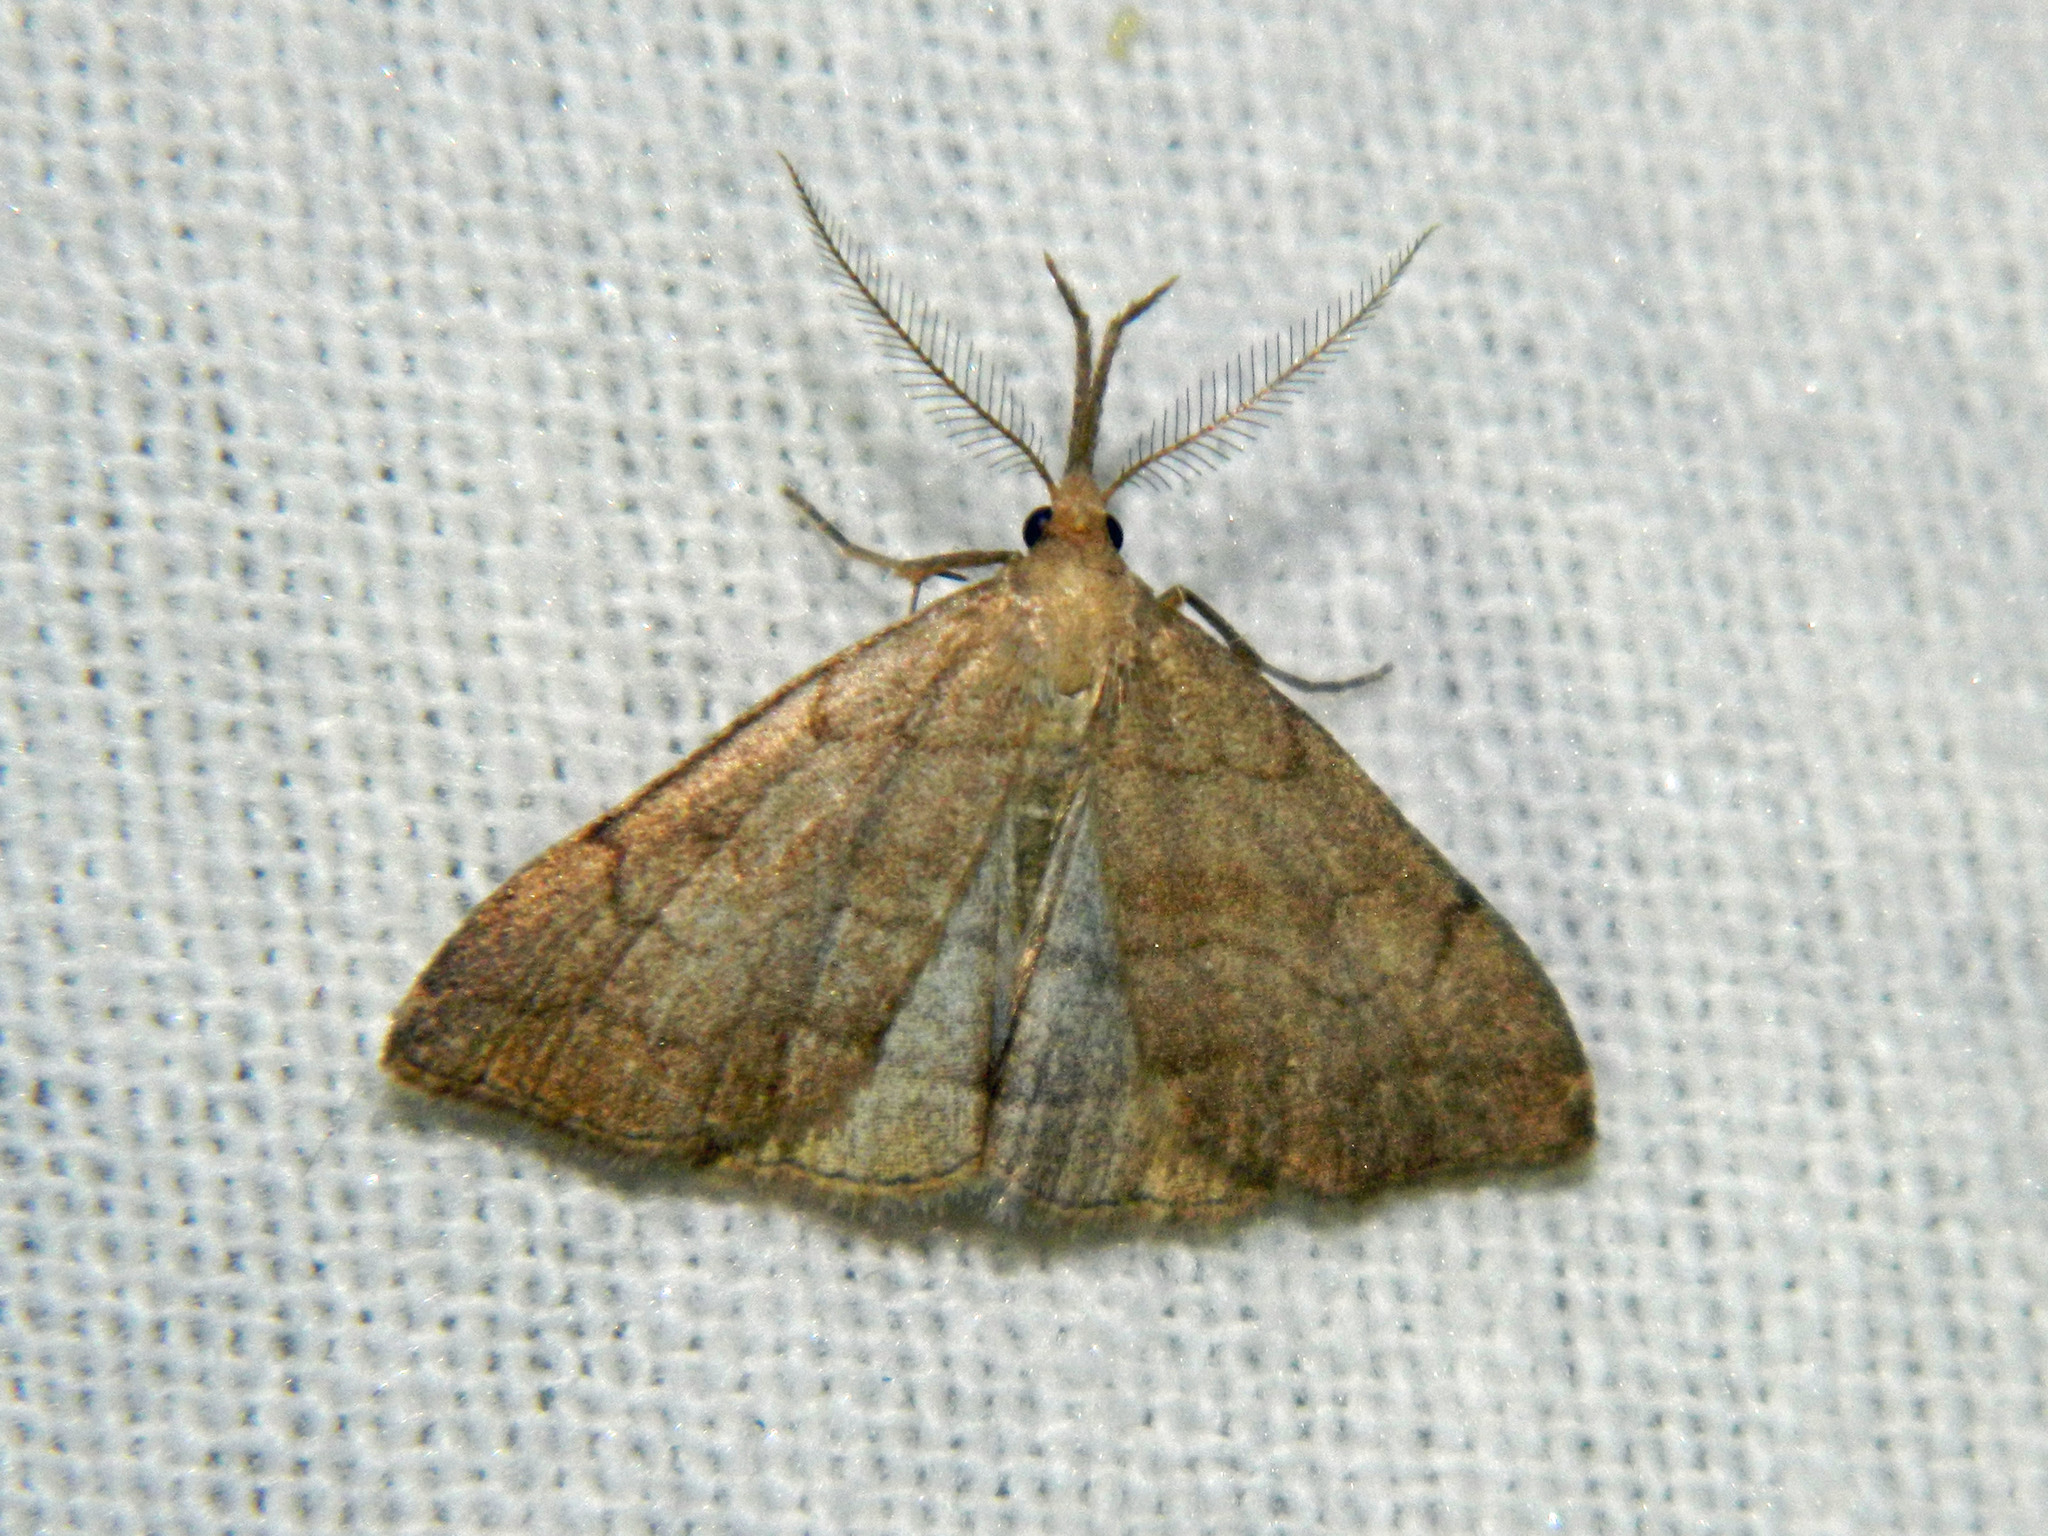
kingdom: Animalia
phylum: Arthropoda
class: Insecta
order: Lepidoptera
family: Erebidae
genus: Phalaenostola
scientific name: Phalaenostola metonalis
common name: Pale phalaenostola moth
